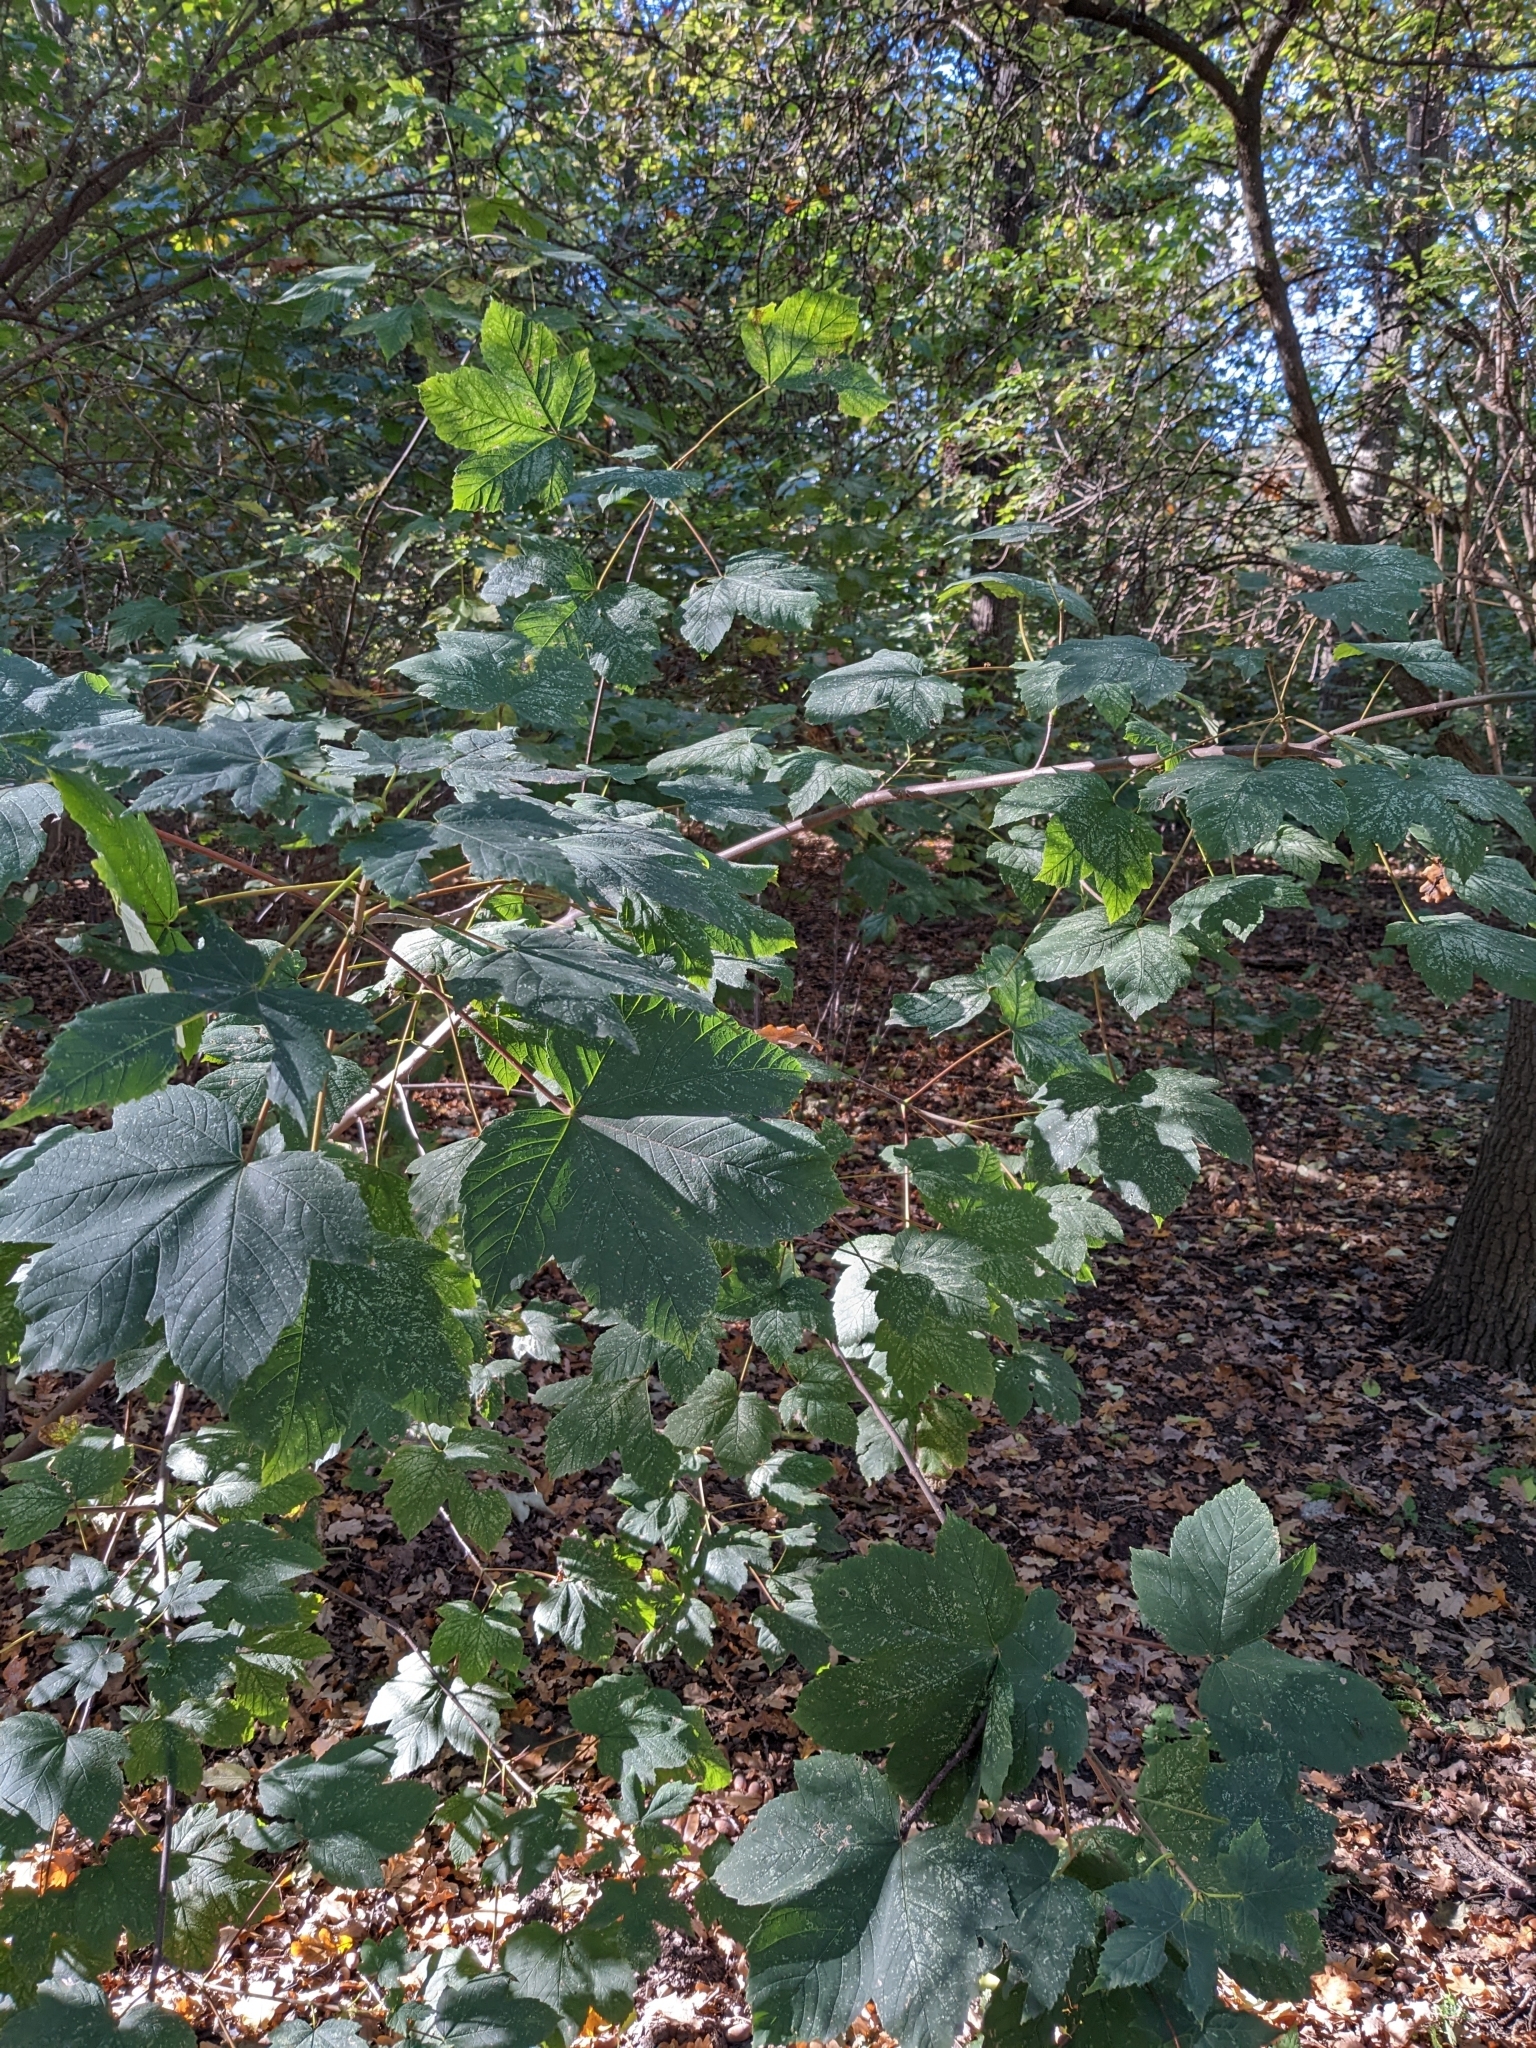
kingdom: Plantae
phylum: Tracheophyta
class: Magnoliopsida
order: Sapindales
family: Sapindaceae
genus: Acer
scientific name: Acer pseudoplatanus
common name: Sycamore
